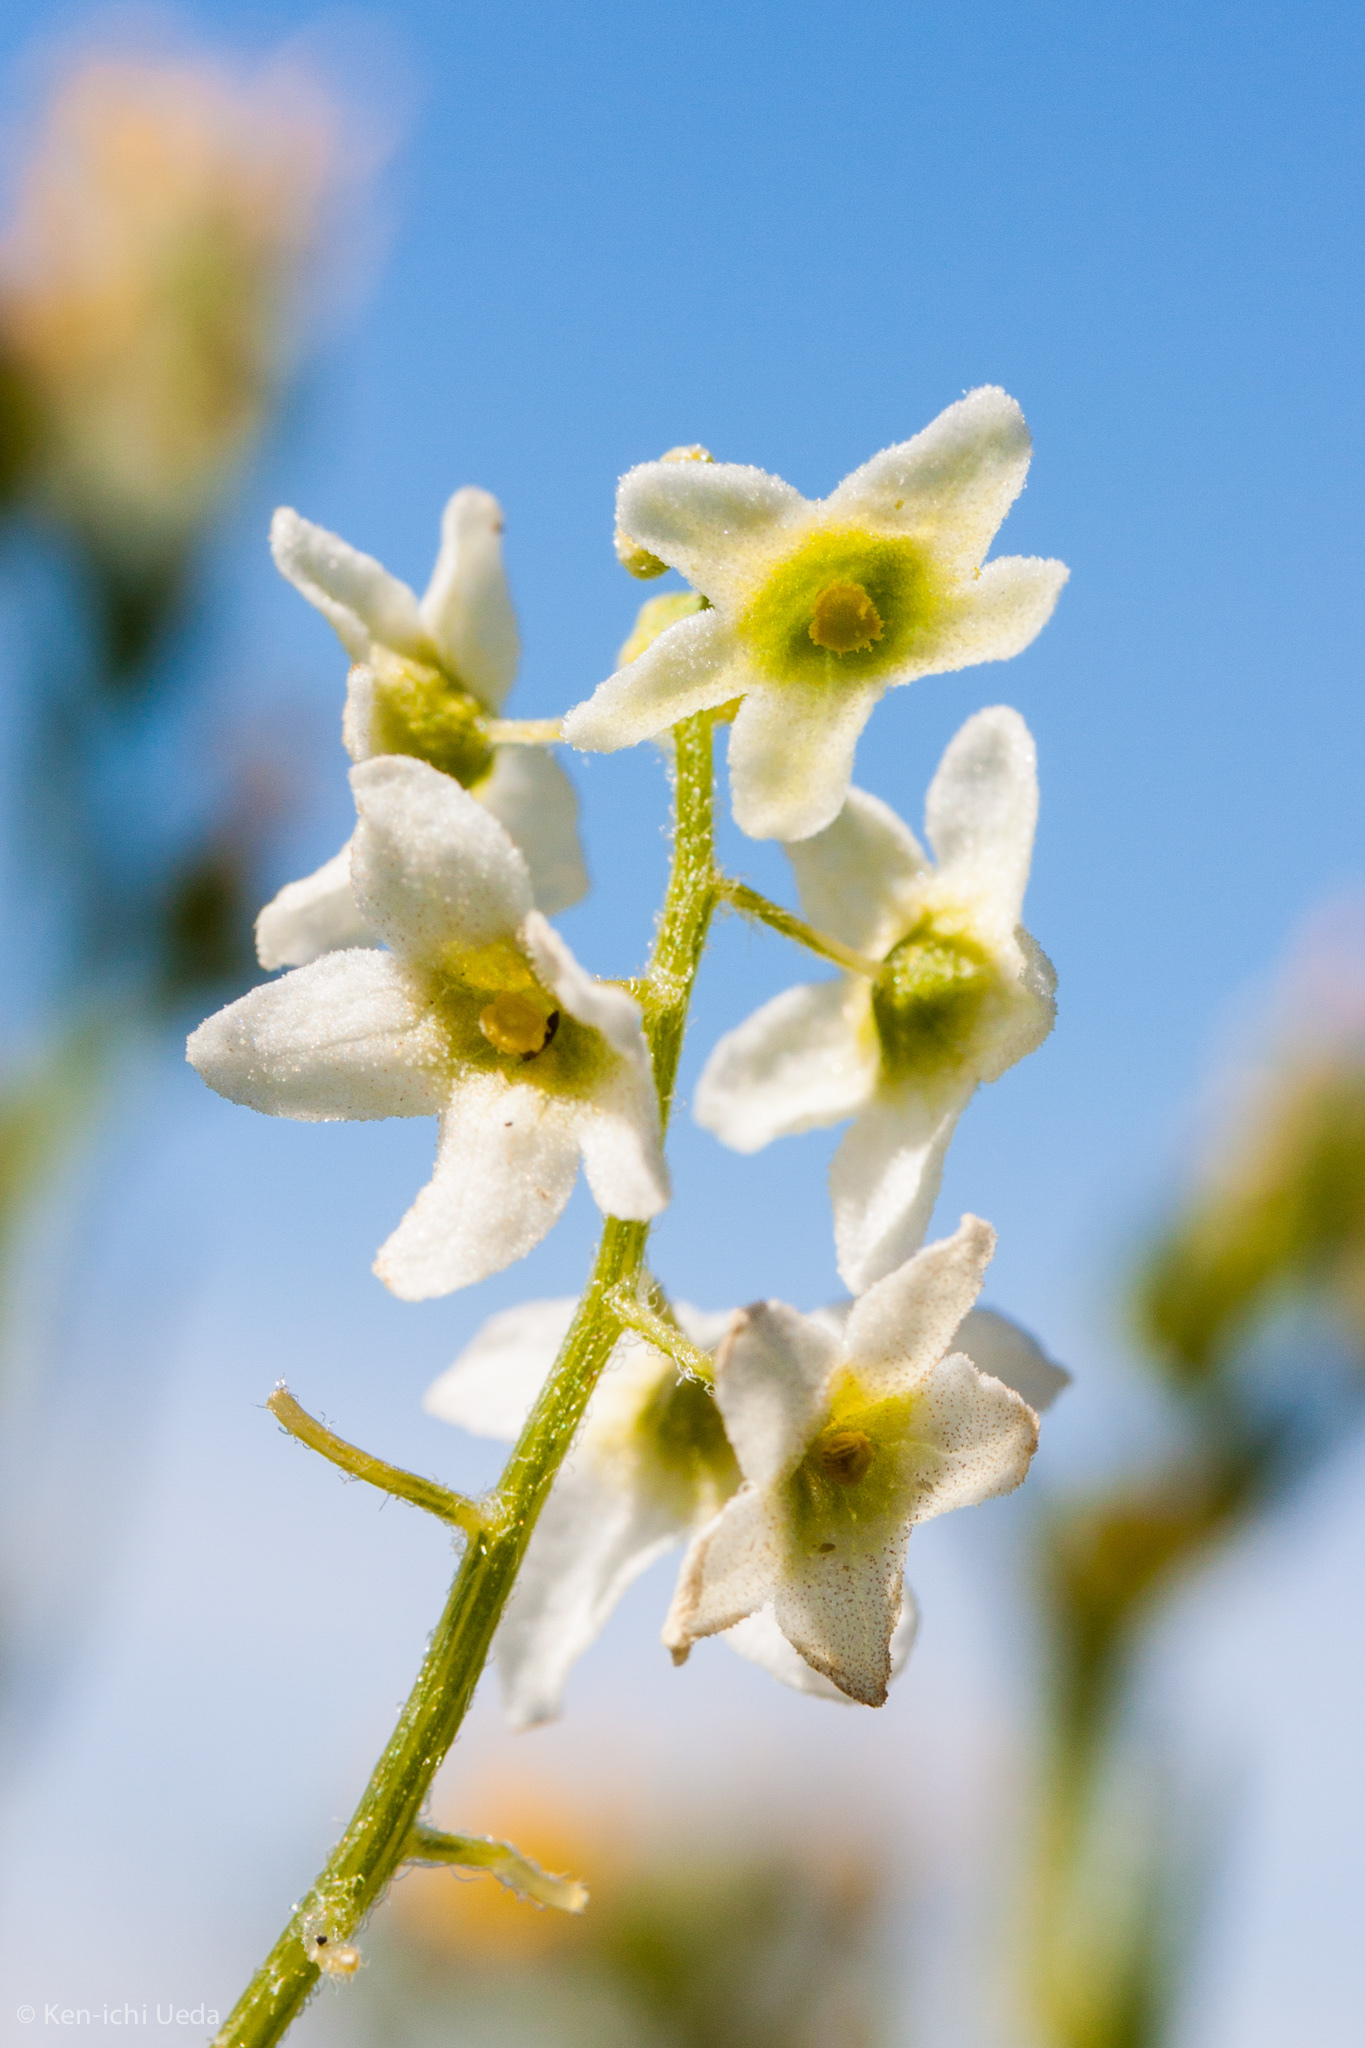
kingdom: Plantae
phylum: Tracheophyta
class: Magnoliopsida
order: Cucurbitales
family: Cucurbitaceae
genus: Marah
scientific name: Marah fabacea
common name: California manroot
